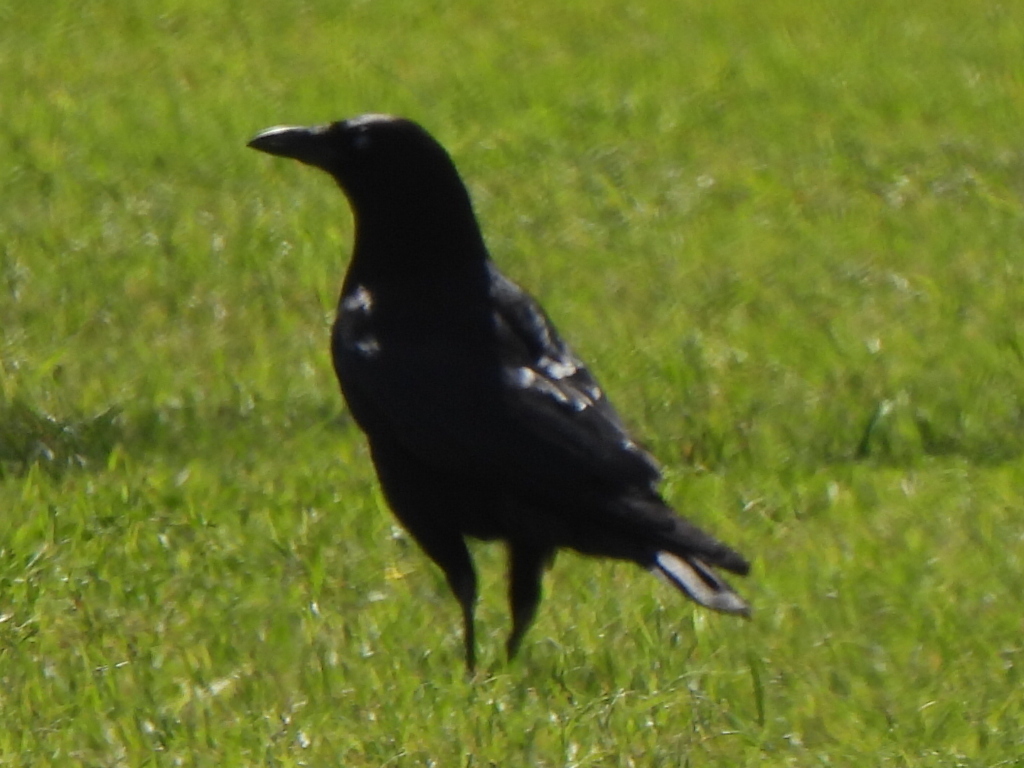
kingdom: Animalia
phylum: Chordata
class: Aves
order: Passeriformes
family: Corvidae
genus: Corvus
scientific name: Corvus brachyrhynchos
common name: American crow
